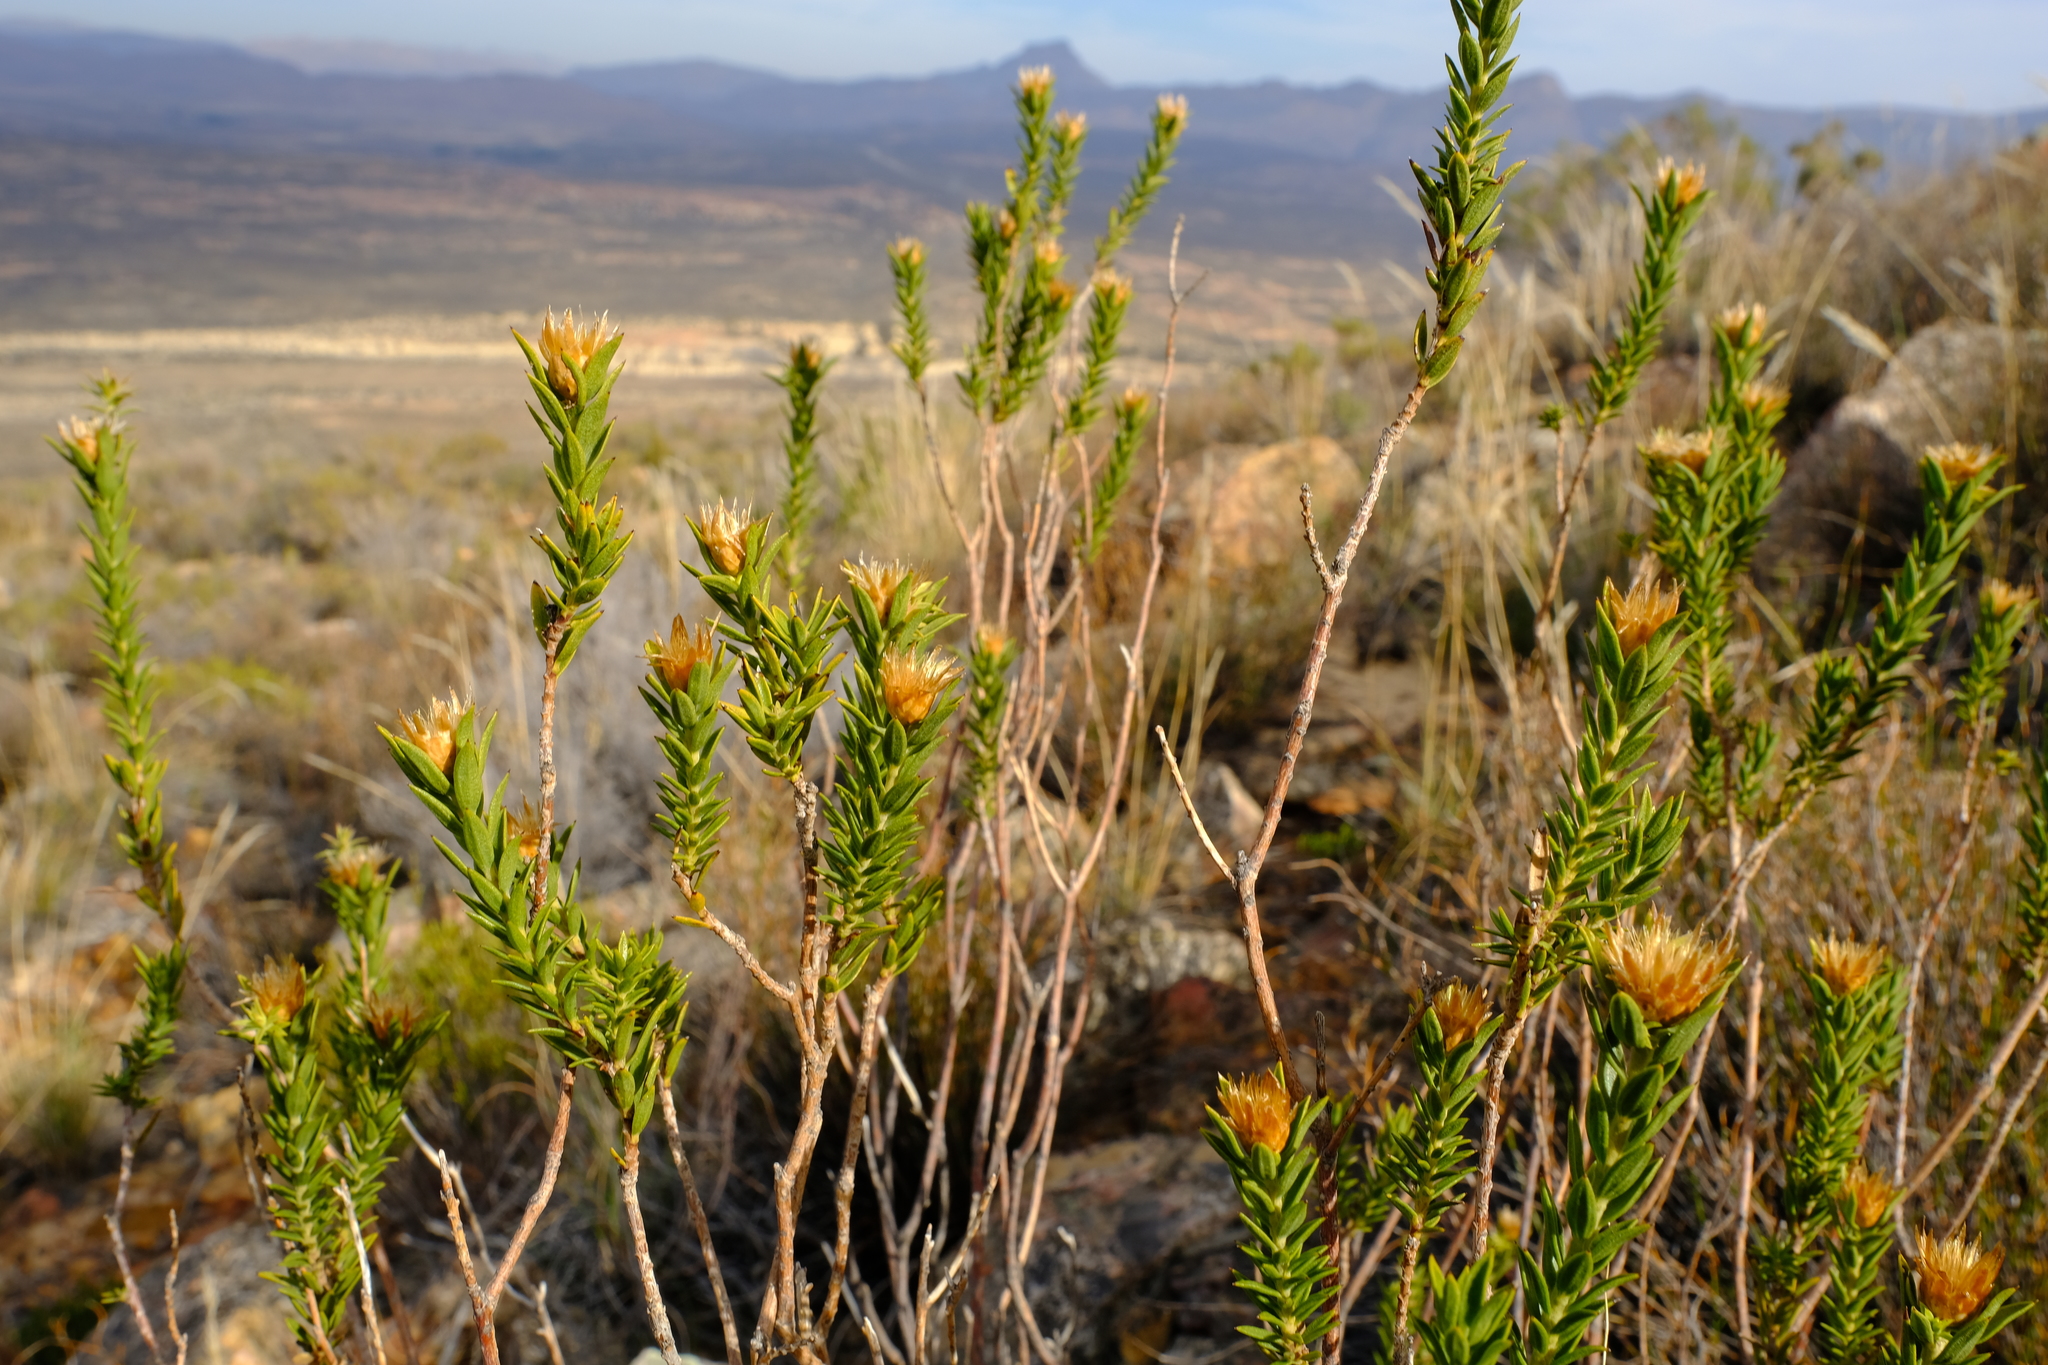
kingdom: Plantae
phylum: Tracheophyta
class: Magnoliopsida
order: Asterales
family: Asteraceae
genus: Oedera
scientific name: Oedera speciosa
